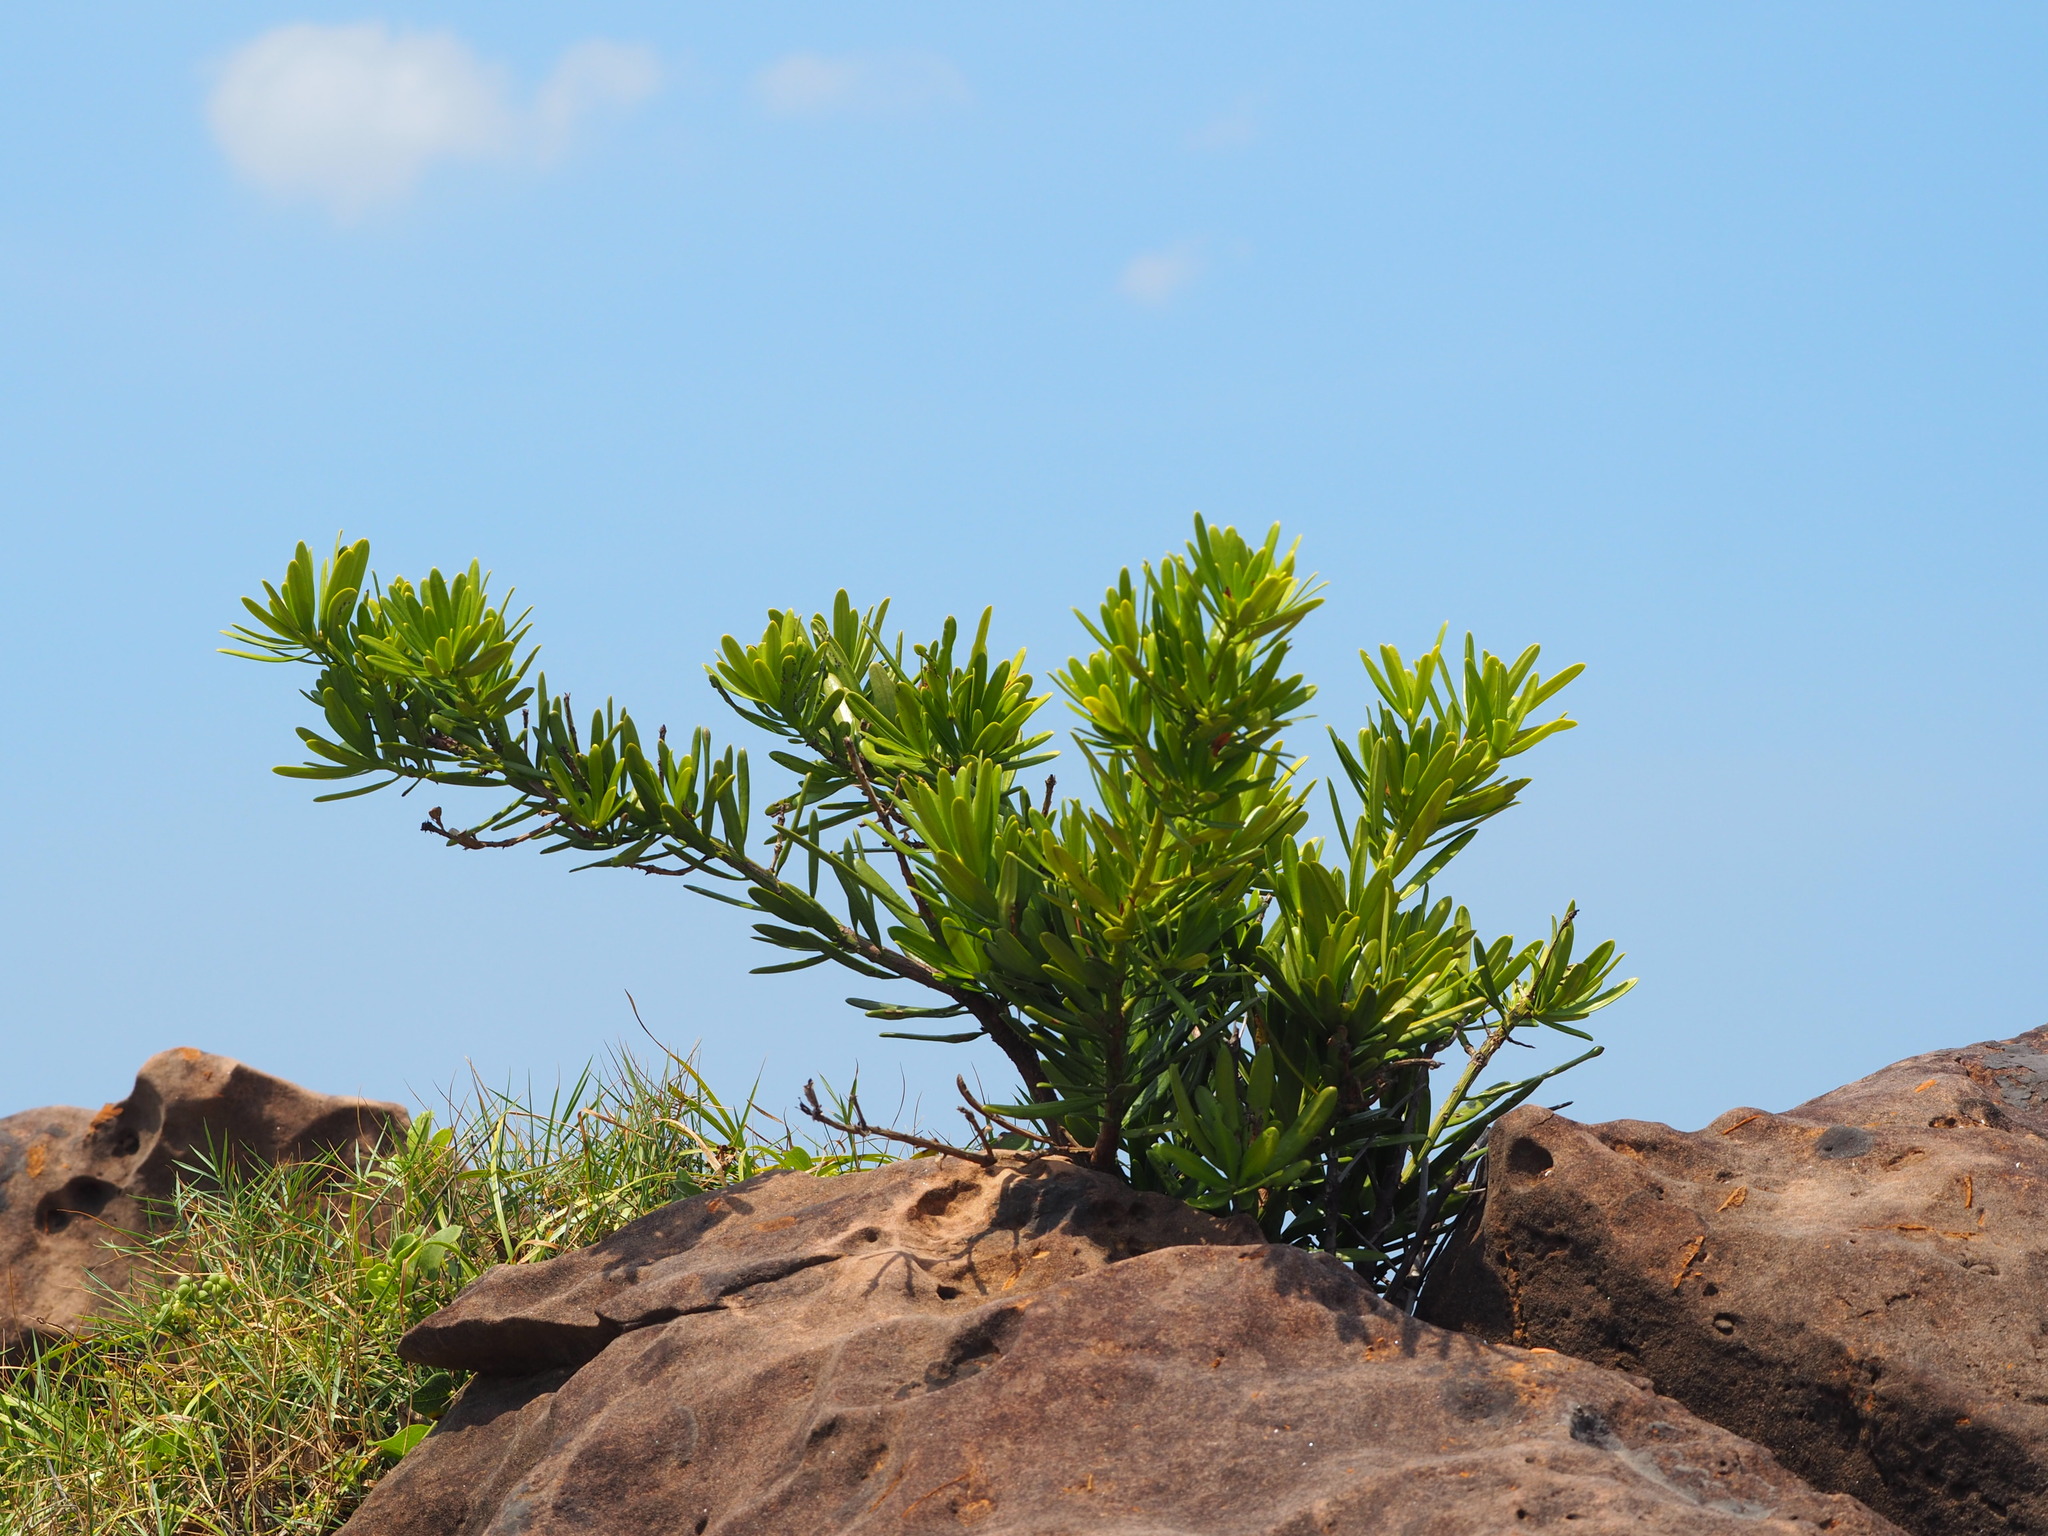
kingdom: Plantae
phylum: Tracheophyta
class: Pinopsida
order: Pinales
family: Podocarpaceae
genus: Podocarpus
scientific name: Podocarpus costalis
